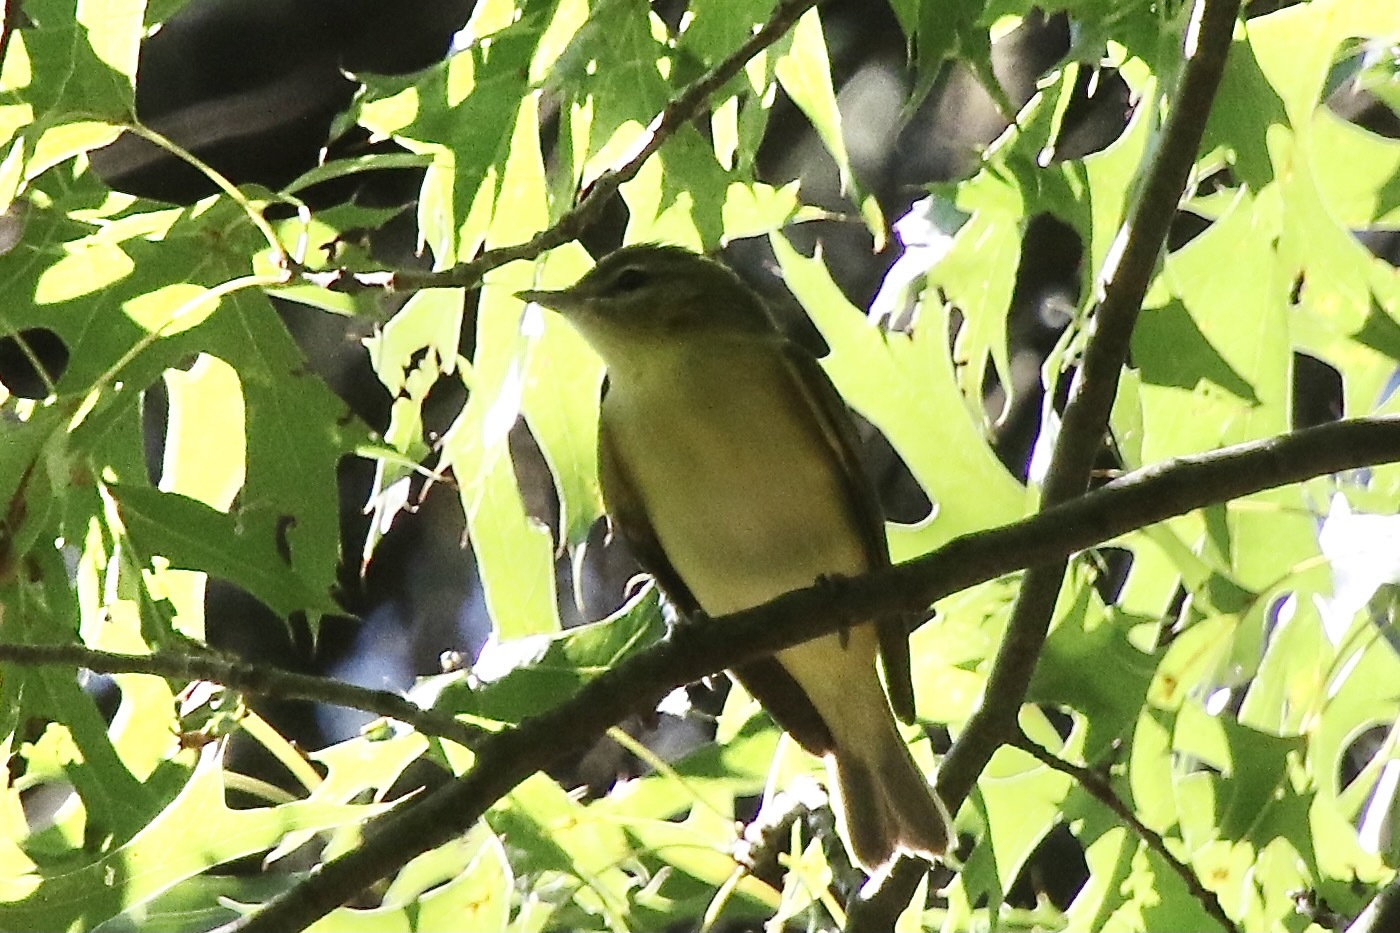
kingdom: Animalia
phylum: Chordata
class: Aves
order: Passeriformes
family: Vireonidae
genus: Vireo
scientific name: Vireo philadelphicus
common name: Philadelphia vireo
